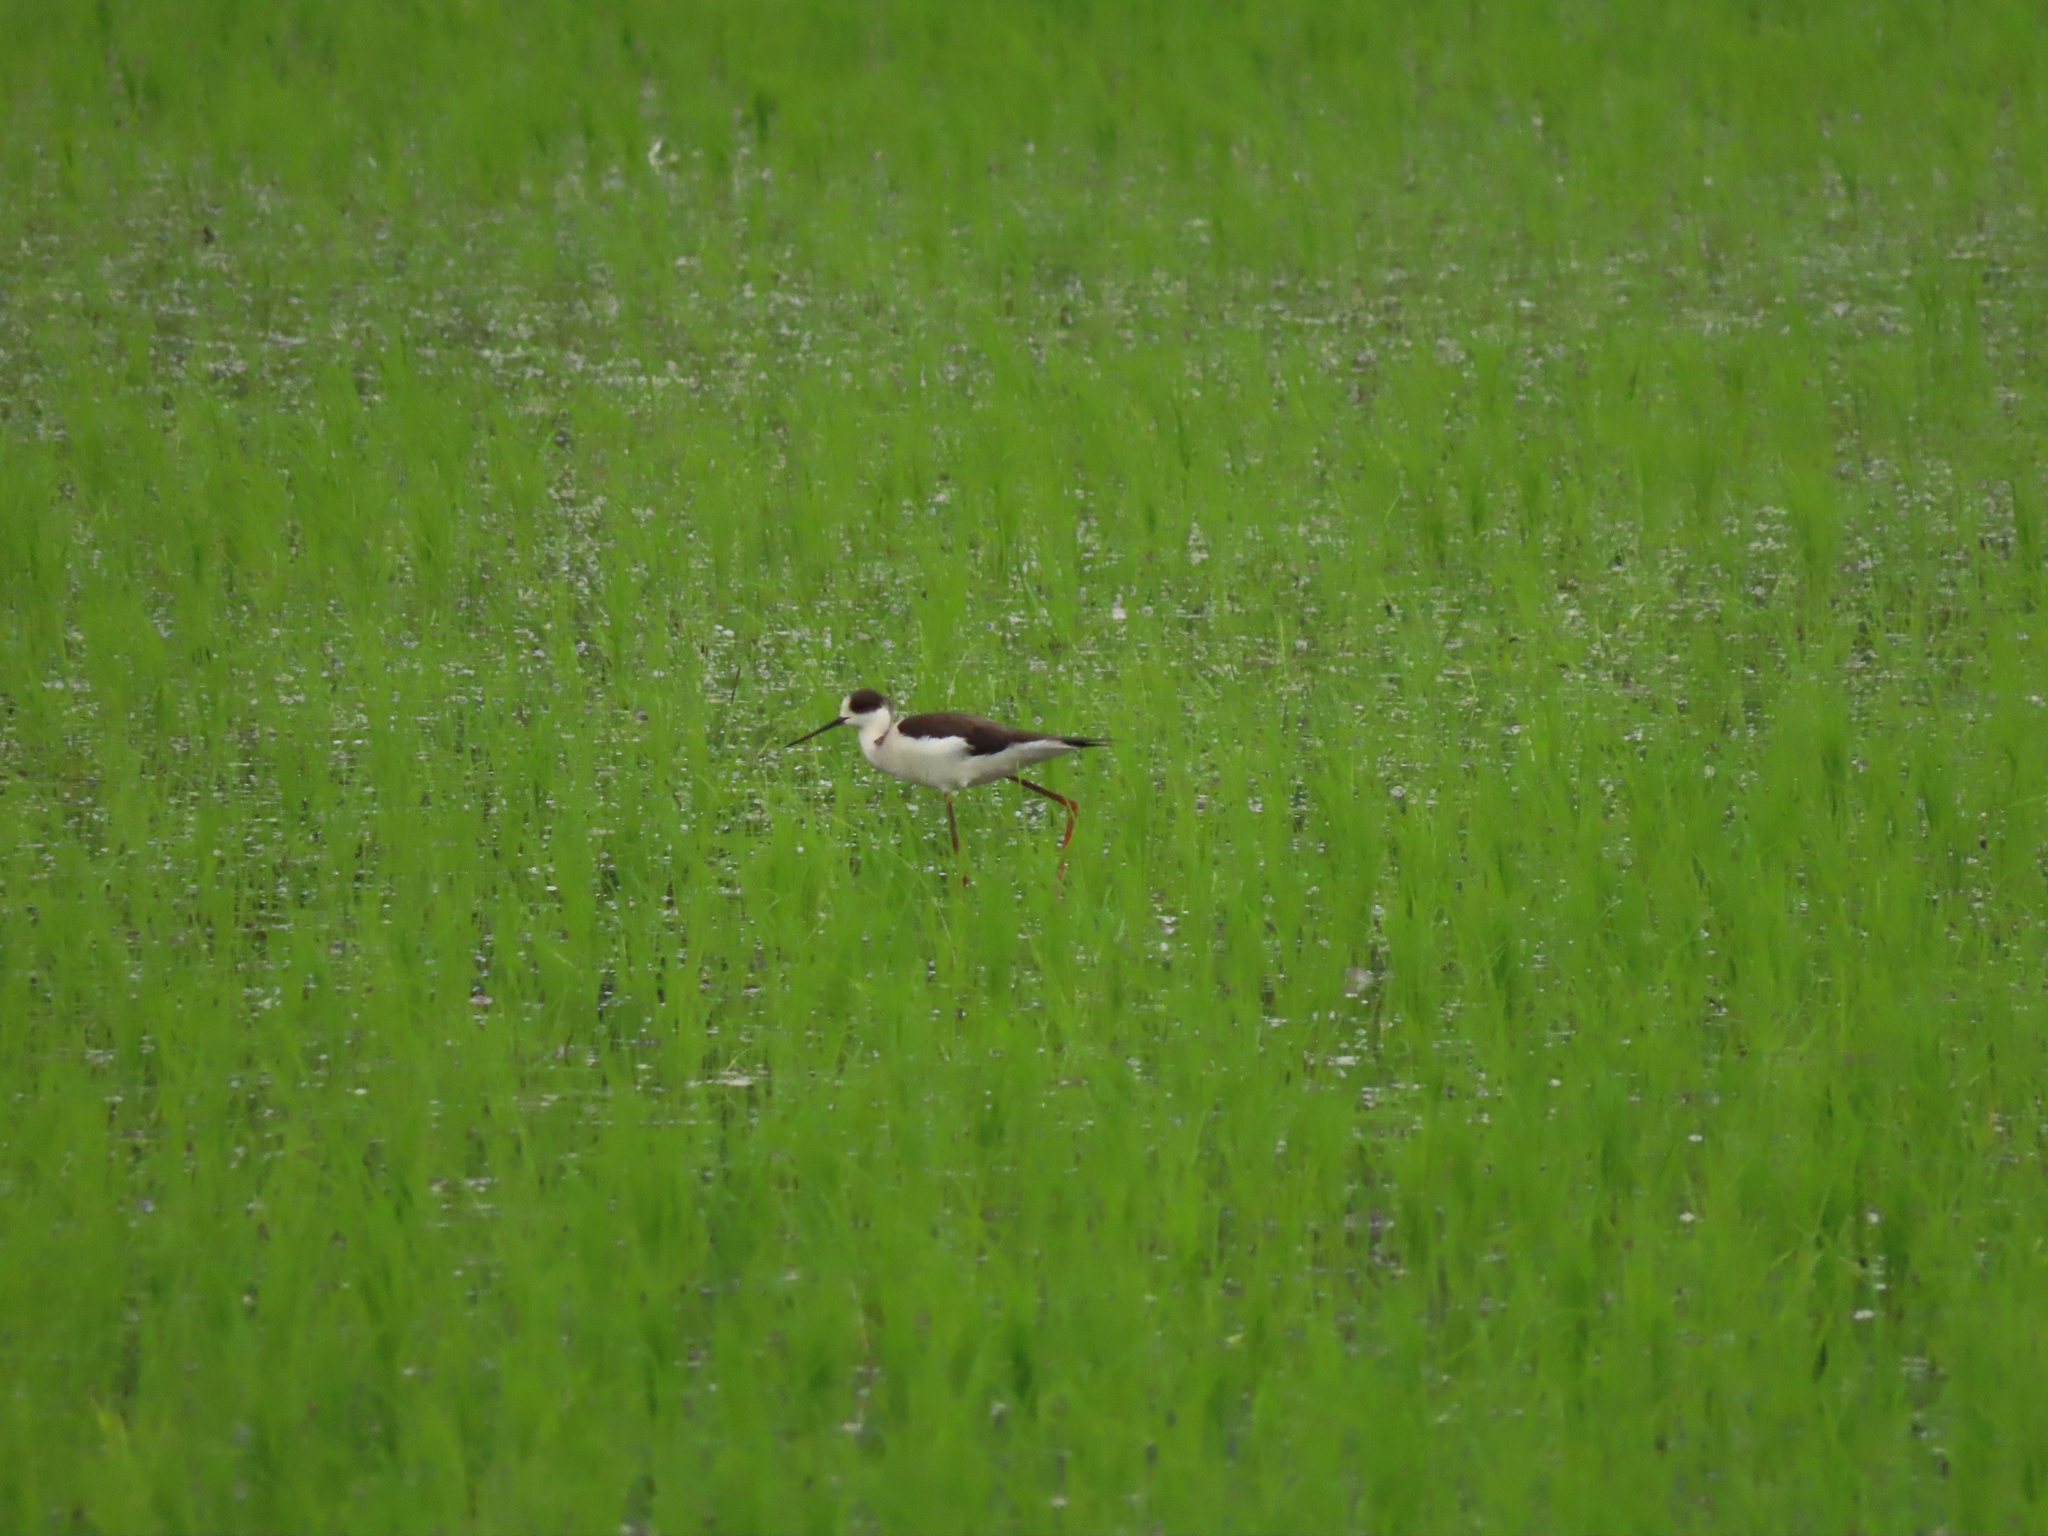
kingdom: Animalia
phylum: Chordata
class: Aves
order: Charadriiformes
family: Recurvirostridae
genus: Himantopus
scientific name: Himantopus himantopus
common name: Black-winged stilt
